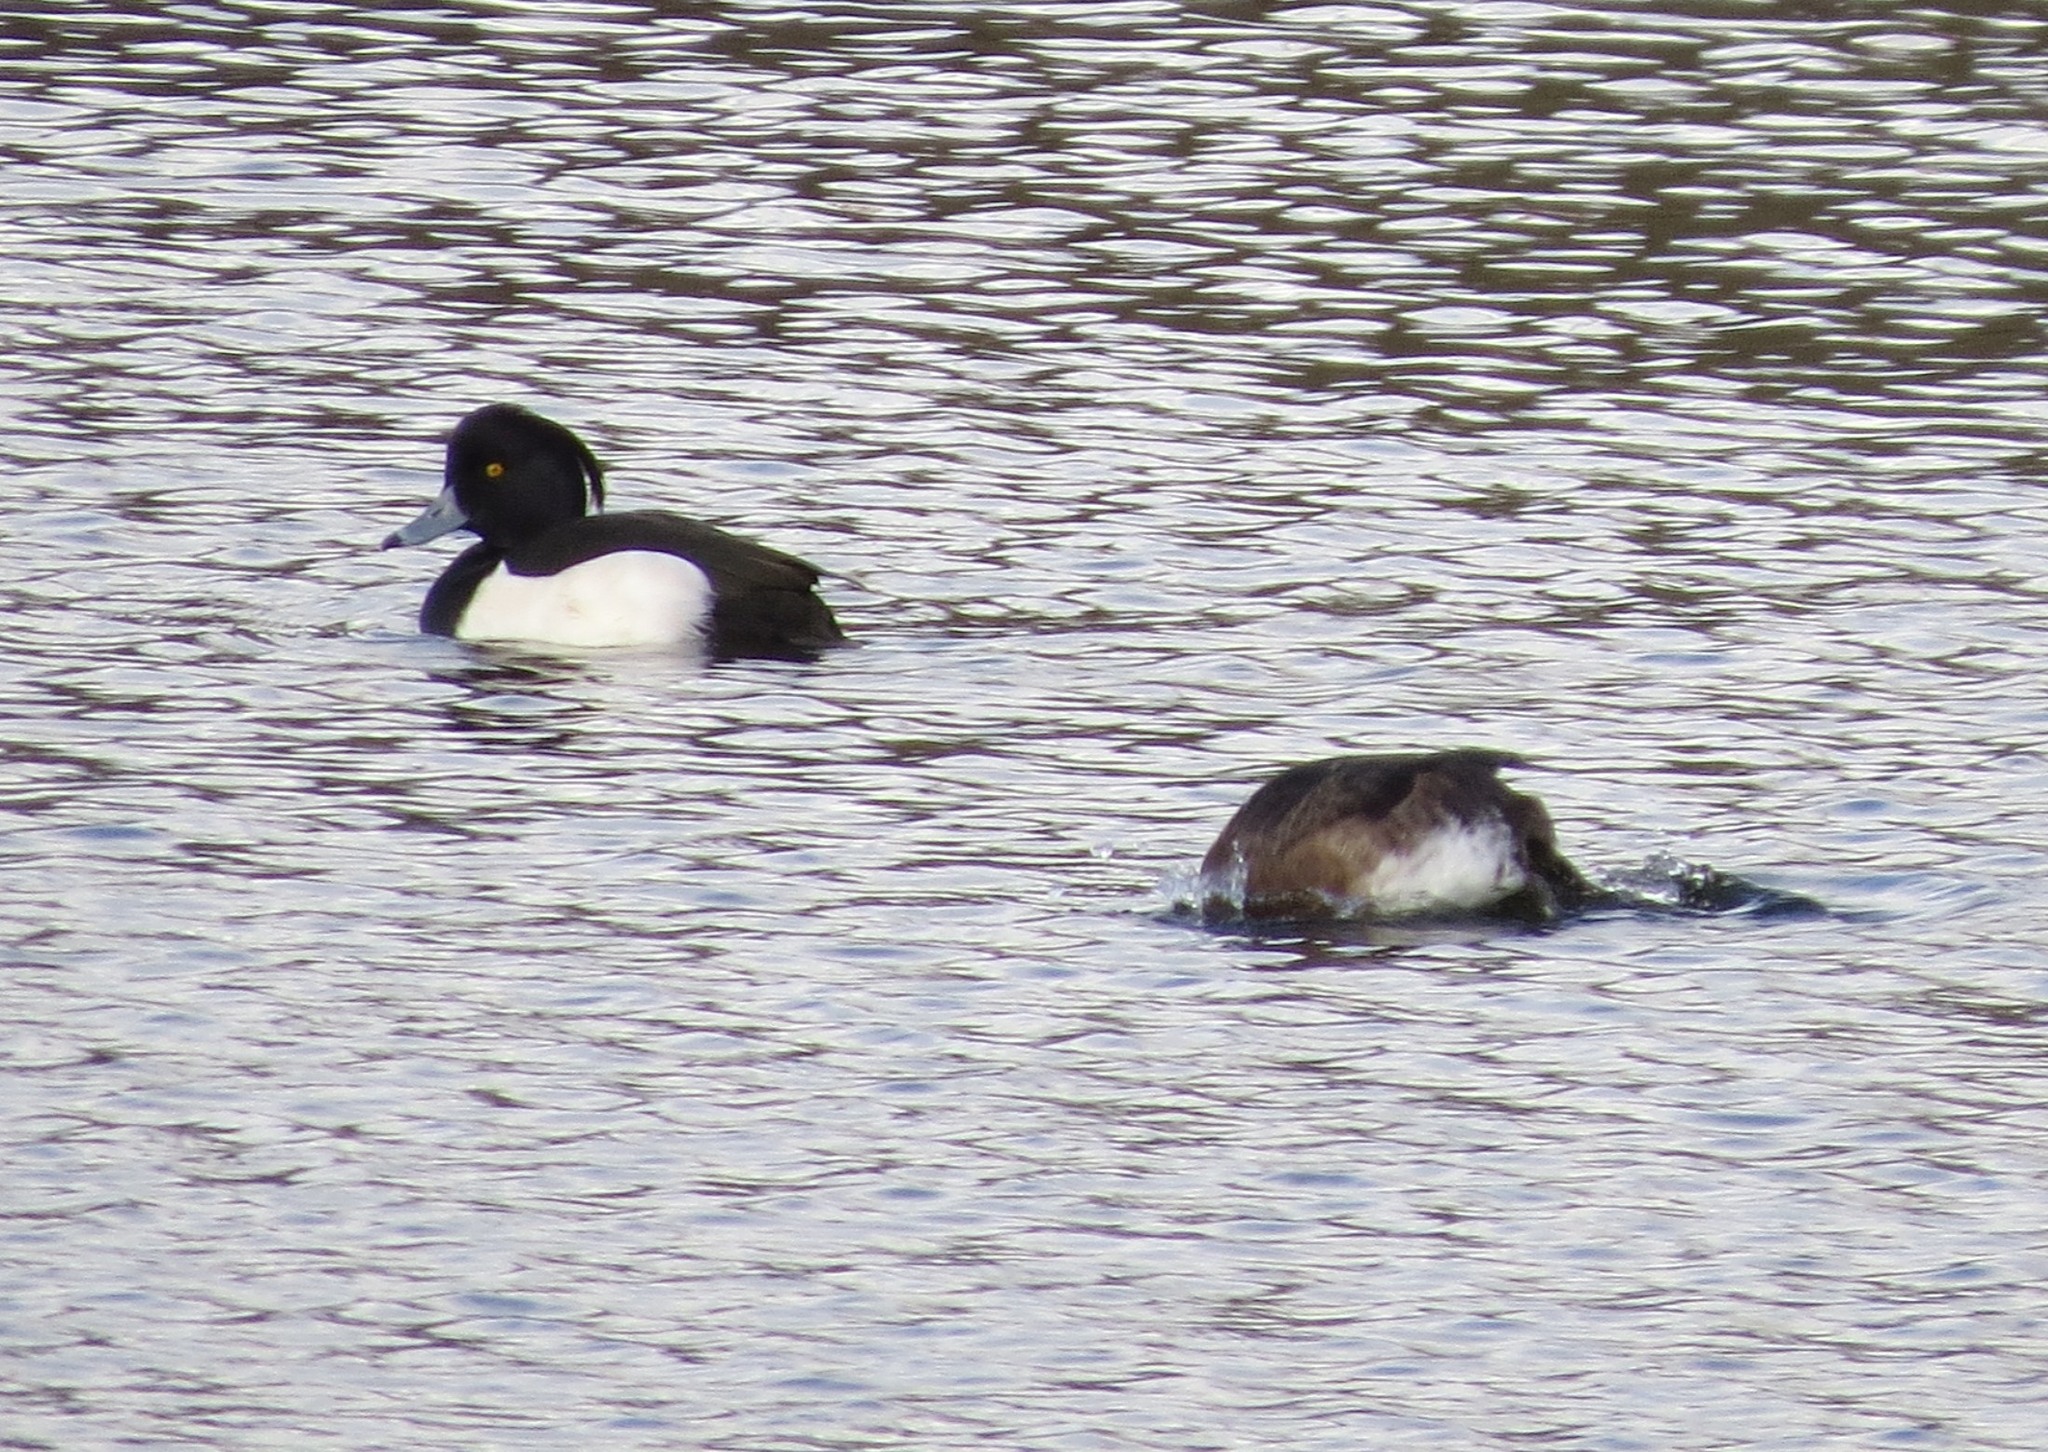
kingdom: Animalia
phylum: Chordata
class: Aves
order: Anseriformes
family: Anatidae
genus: Aythya
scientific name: Aythya fuligula
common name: Tufted duck
